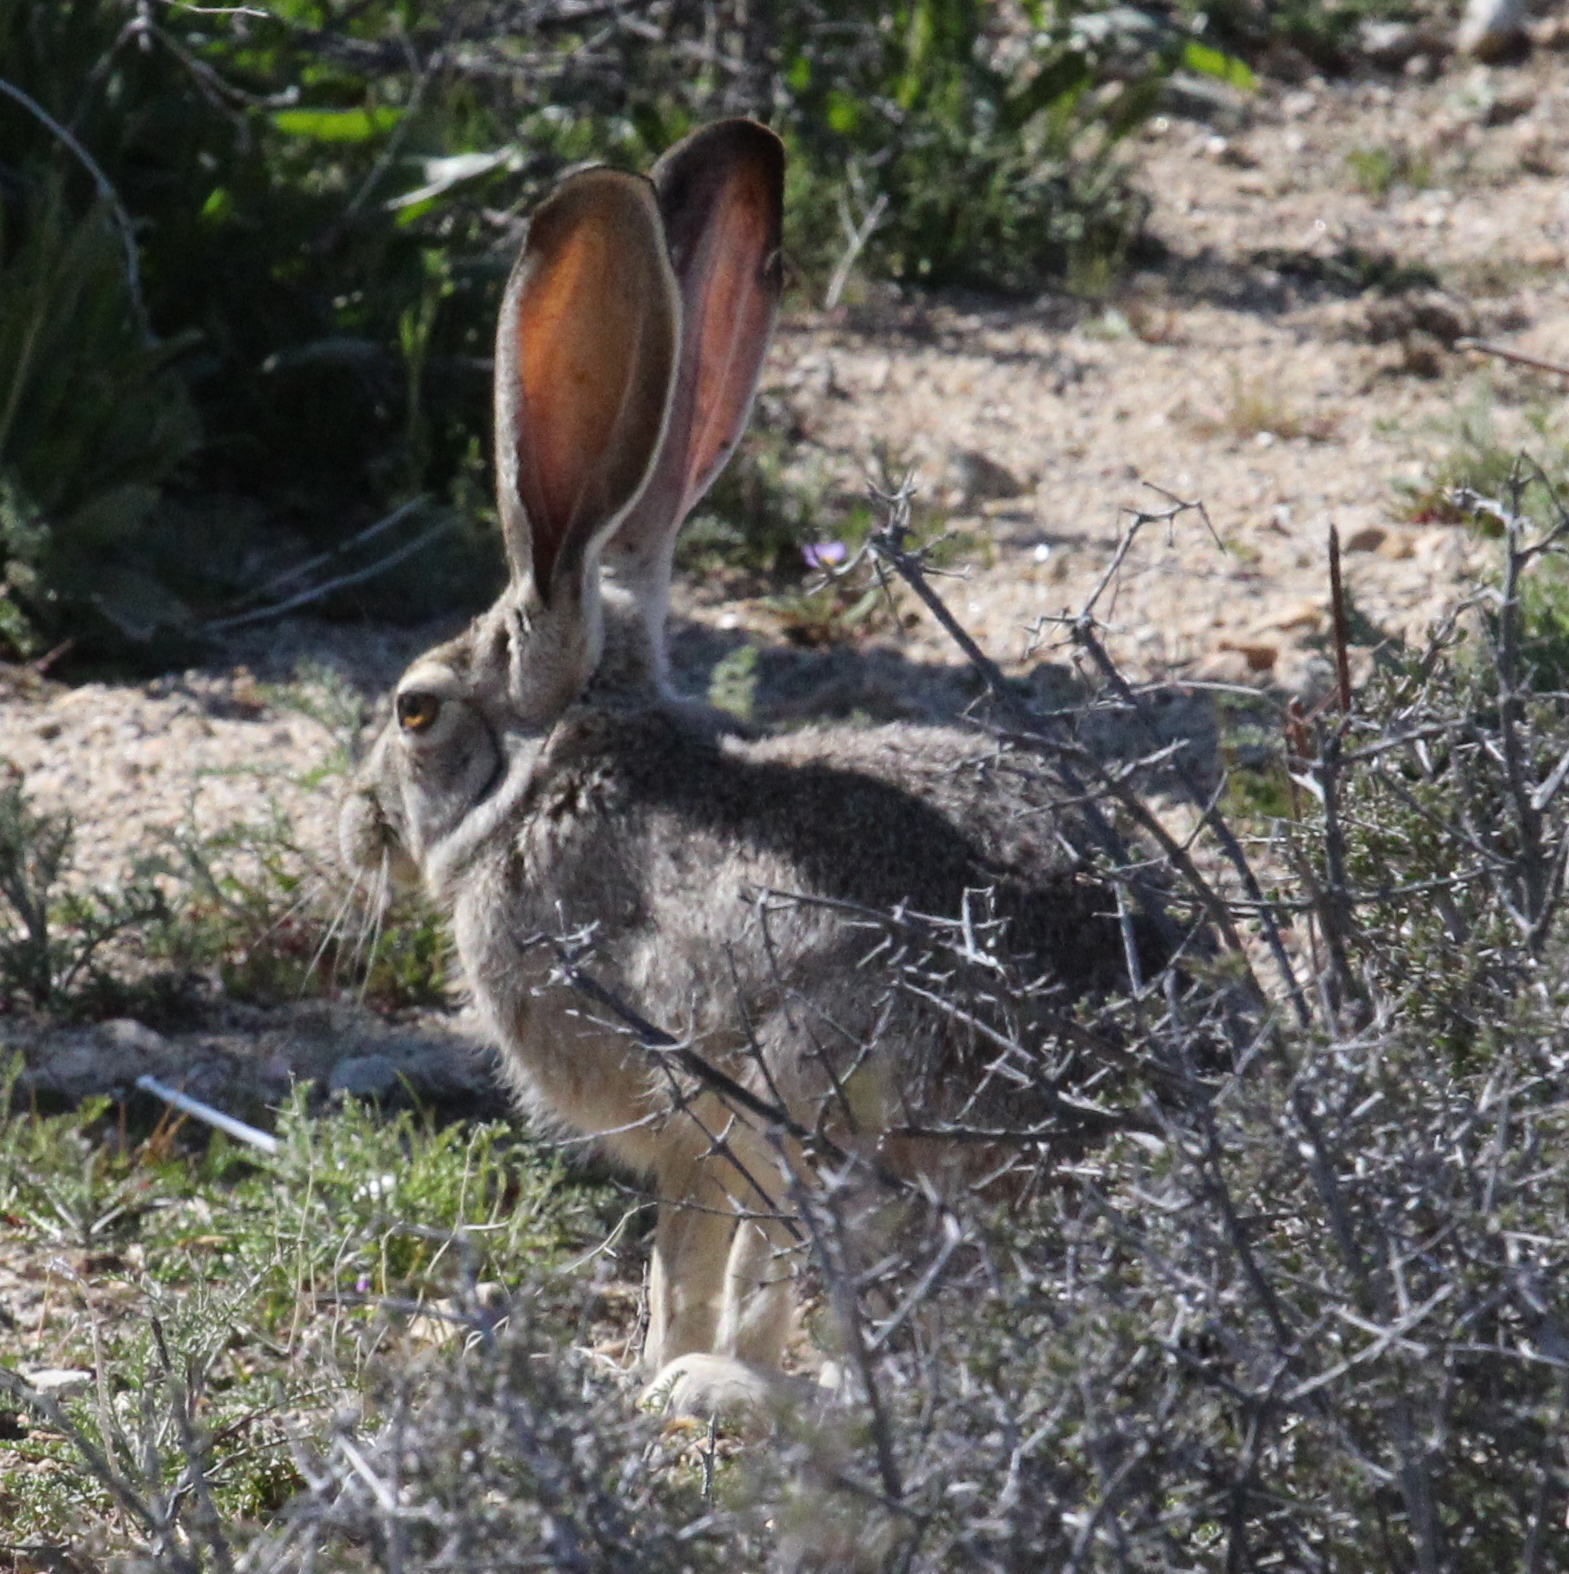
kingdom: Animalia
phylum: Chordata
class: Mammalia
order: Lagomorpha
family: Leporidae
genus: Lepus
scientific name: Lepus californicus
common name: Black-tailed jackrabbit
